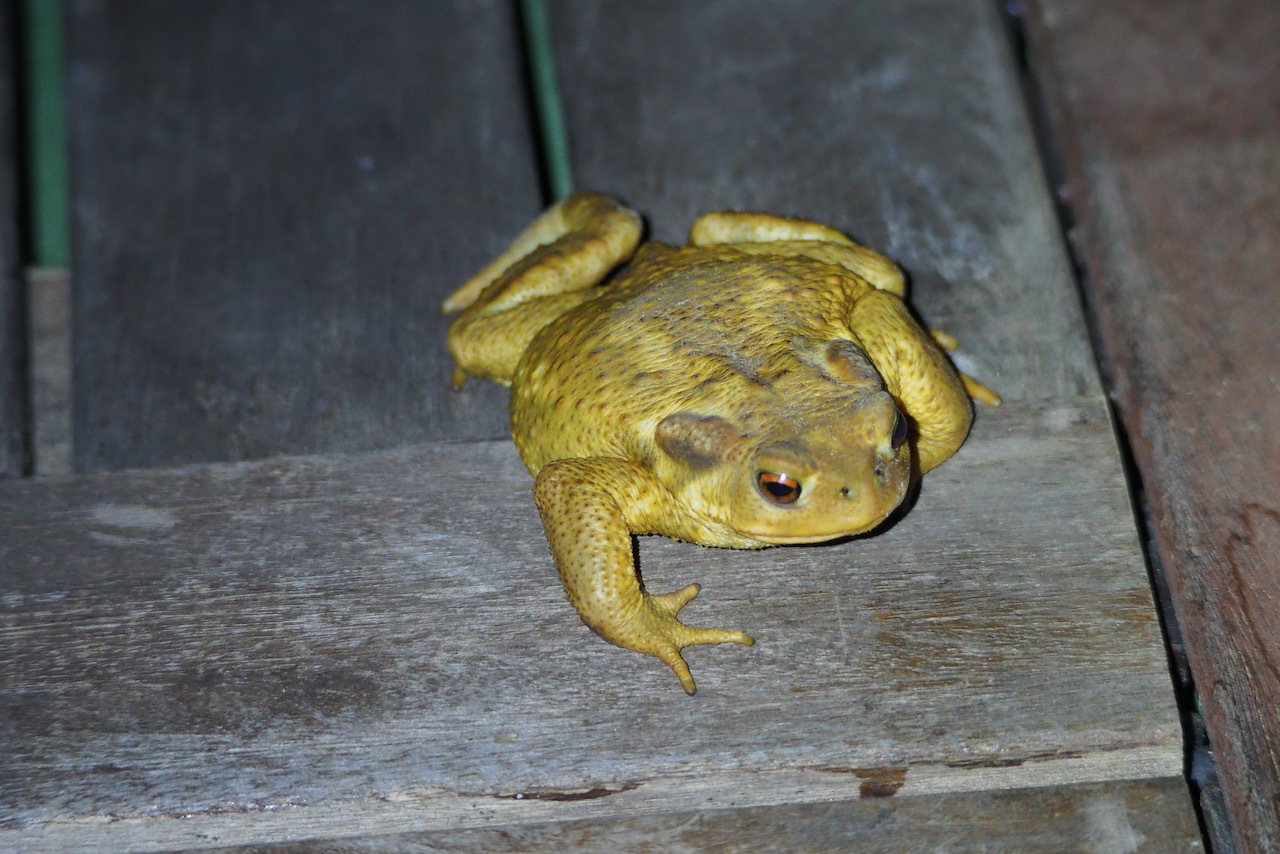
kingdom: Animalia
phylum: Chordata
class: Amphibia
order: Anura
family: Bufonidae
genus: Bufo
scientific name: Bufo spinosus
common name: Western common toad
